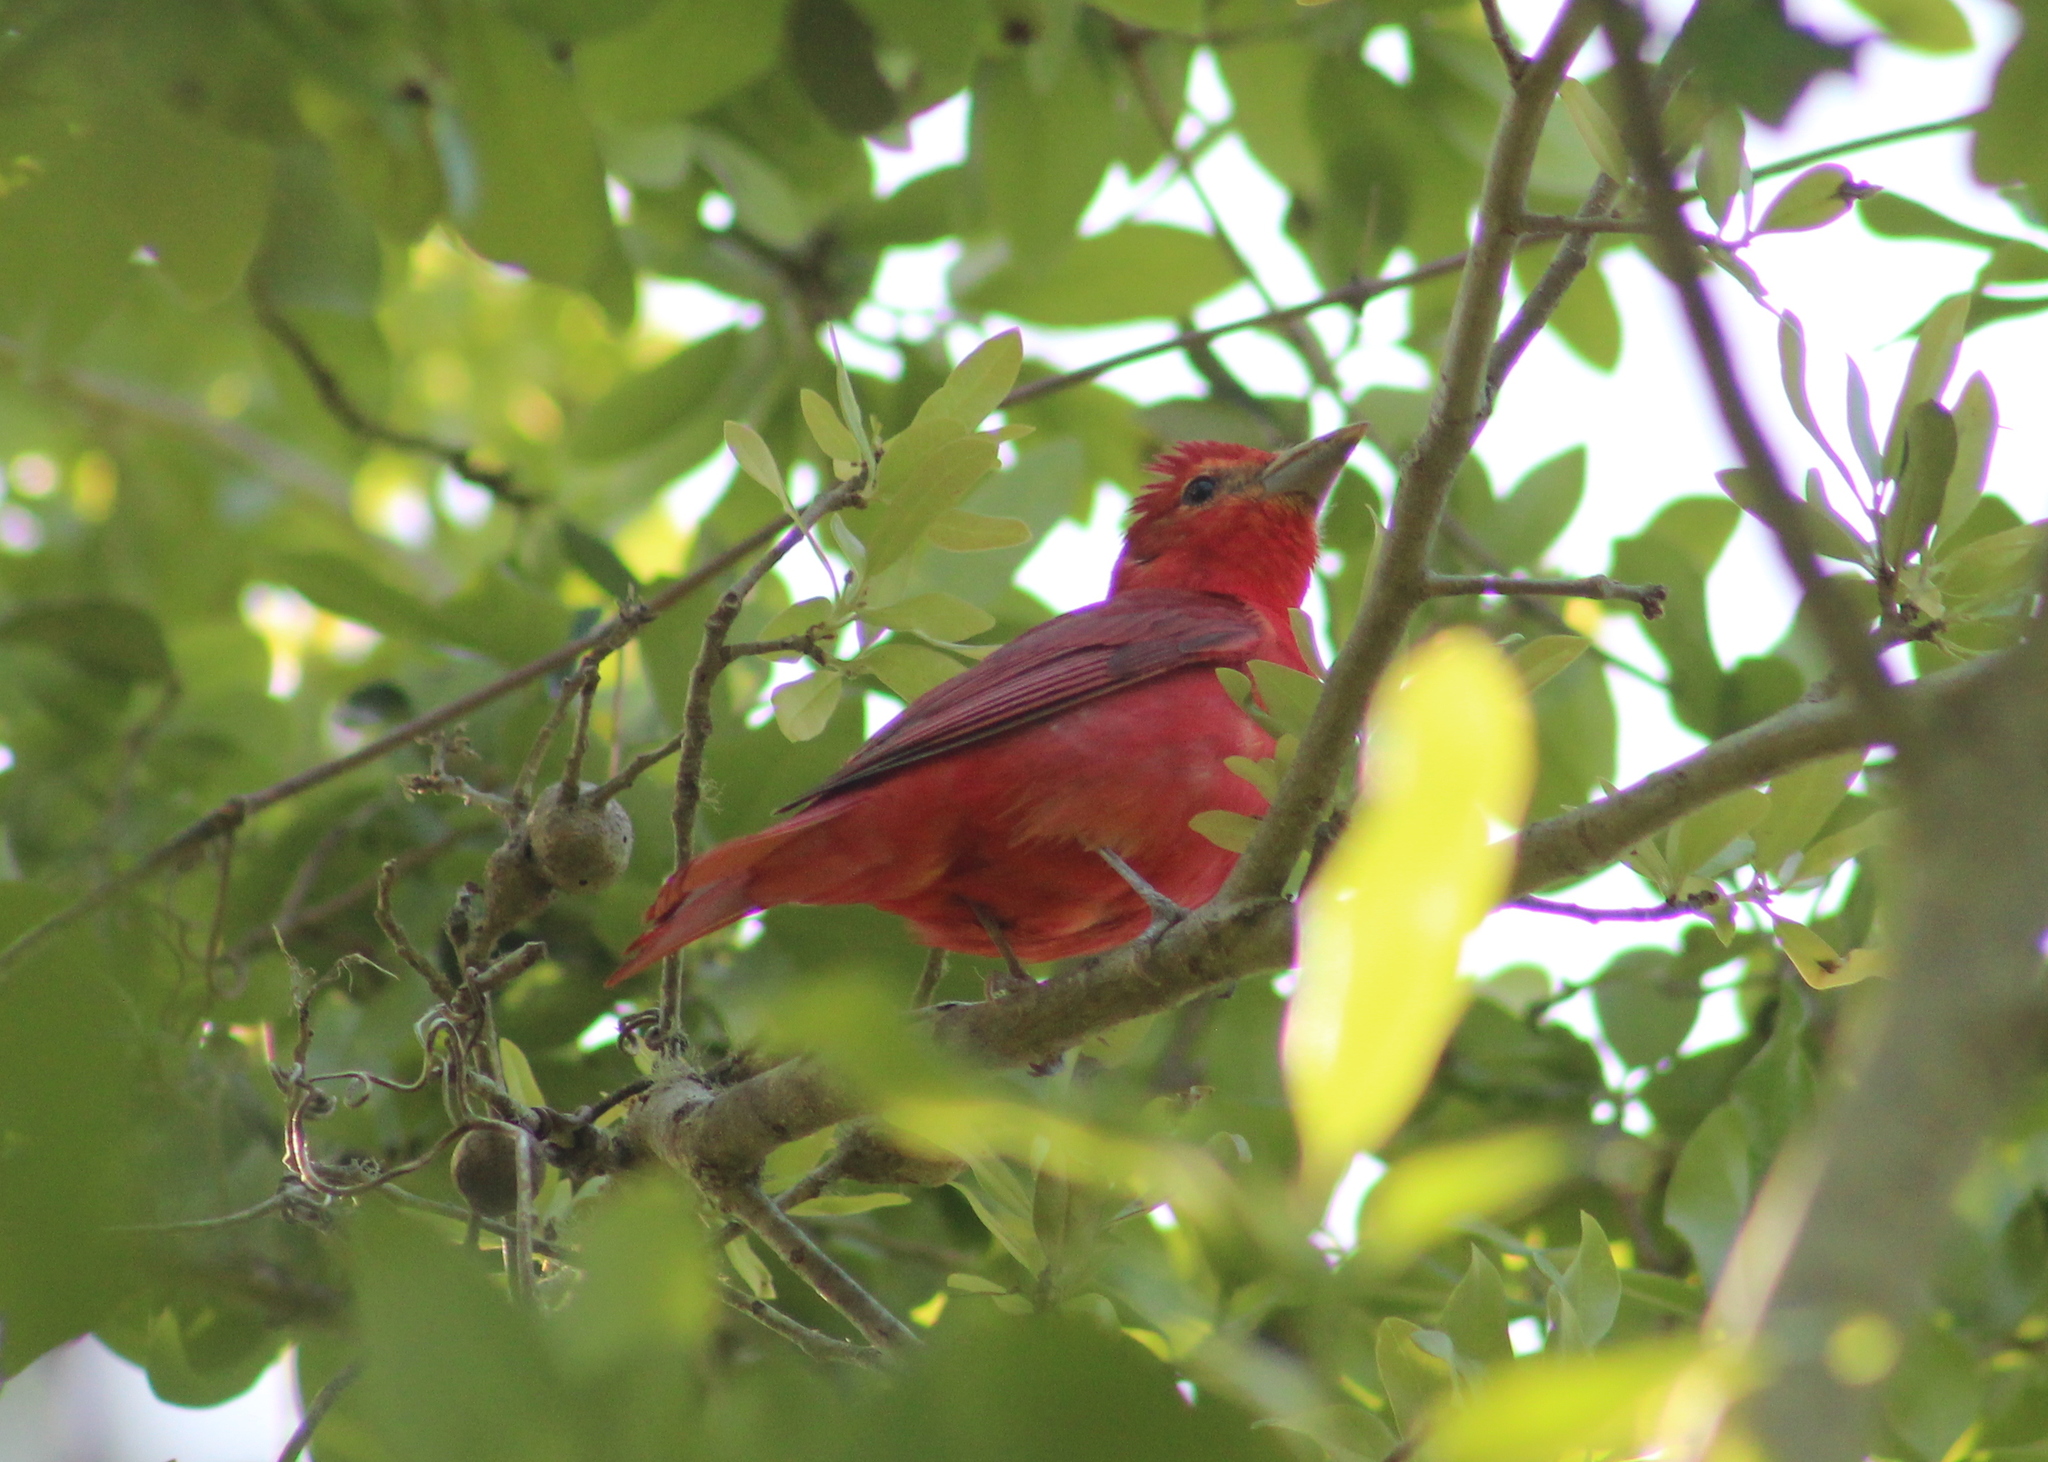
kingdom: Animalia
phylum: Chordata
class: Aves
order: Passeriformes
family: Cardinalidae
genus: Piranga
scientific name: Piranga rubra
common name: Summer tanager
